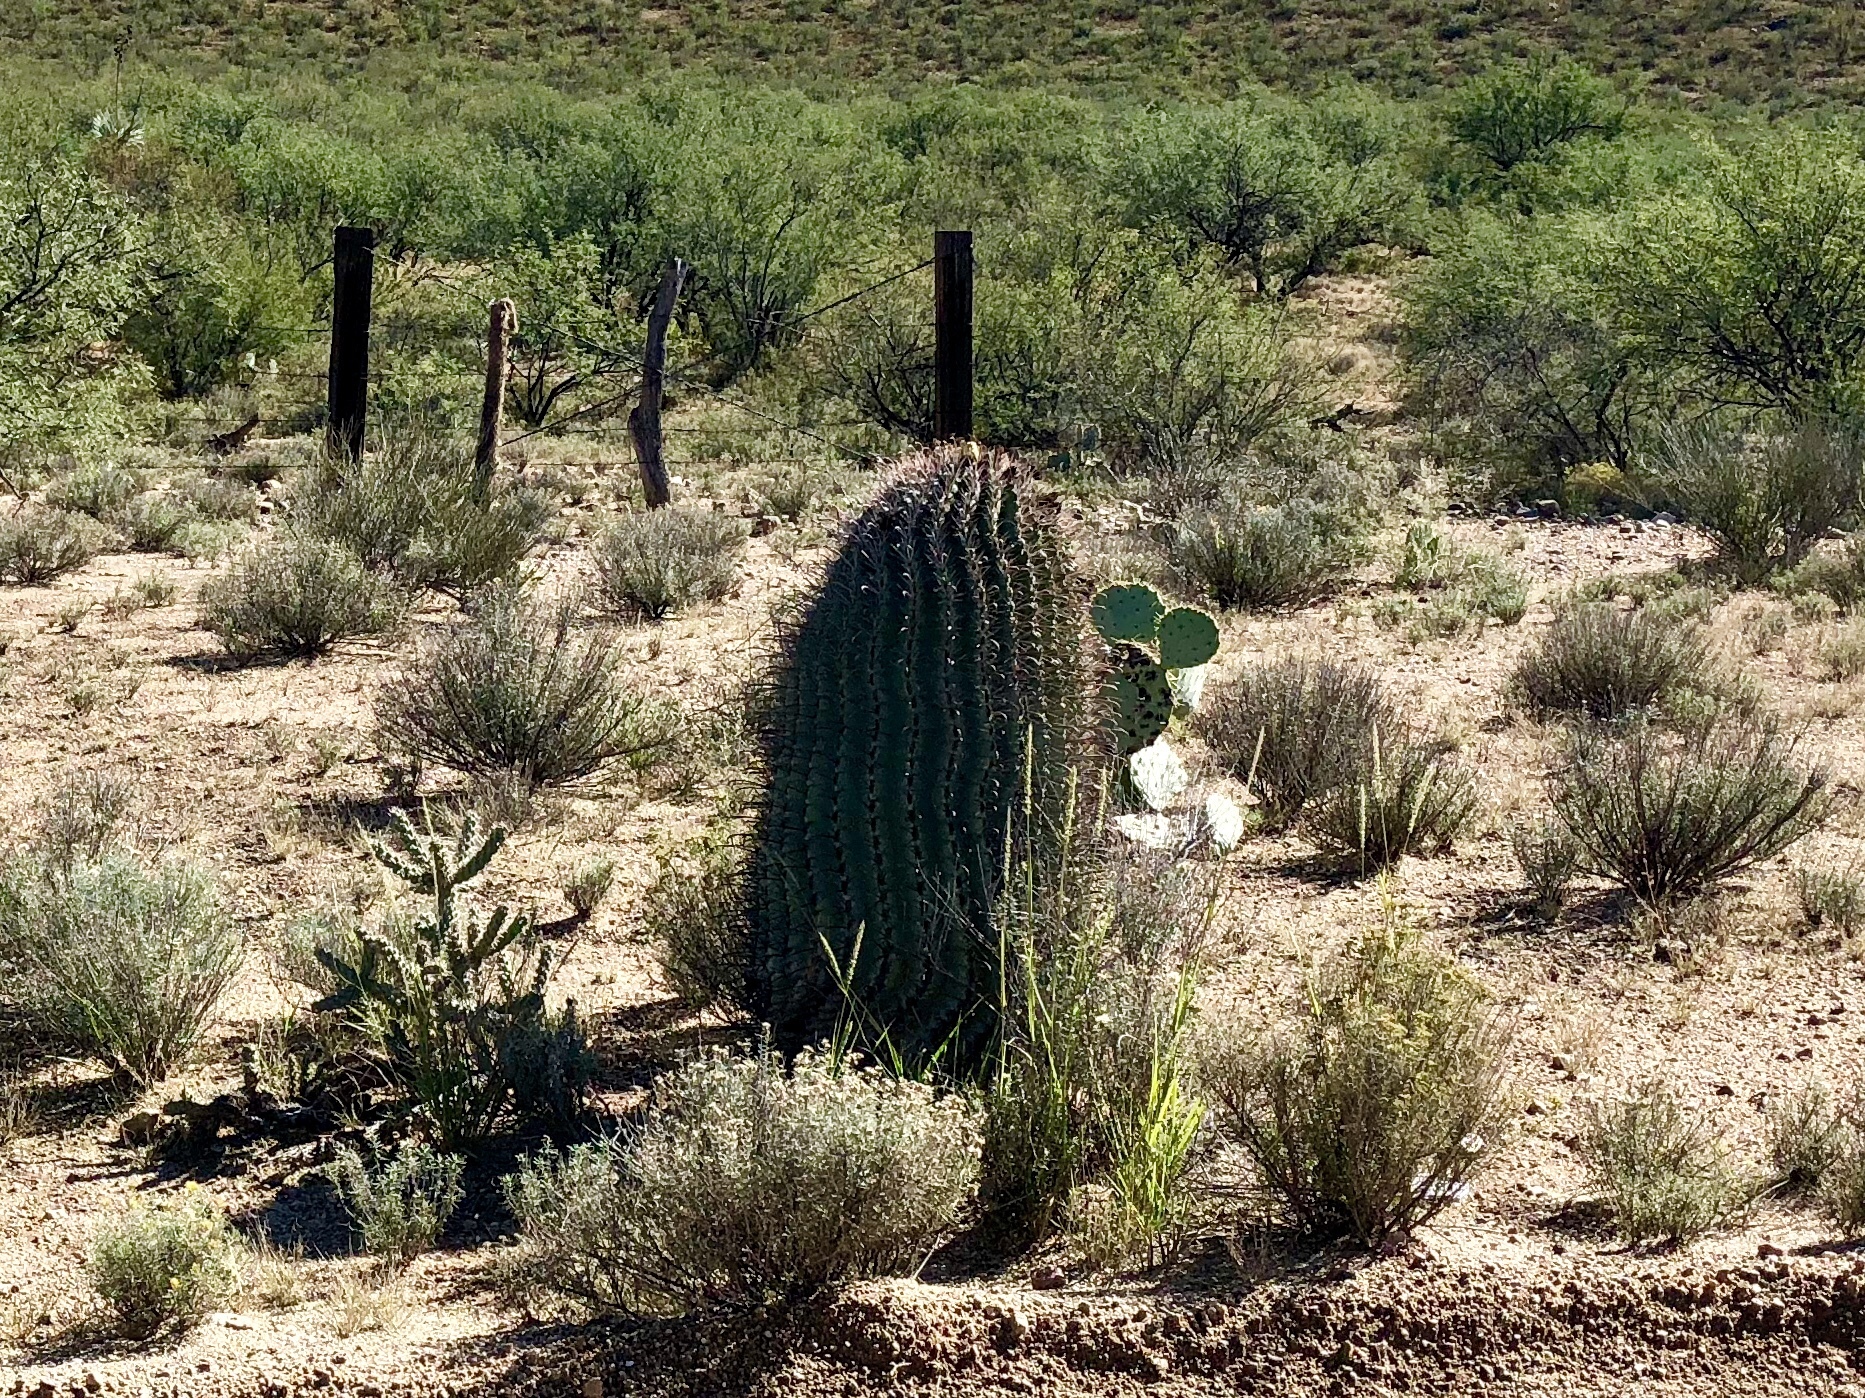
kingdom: Plantae
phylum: Tracheophyta
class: Magnoliopsida
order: Caryophyllales
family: Cactaceae
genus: Ferocactus
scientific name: Ferocactus wislizeni
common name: Candy barrel cactus
